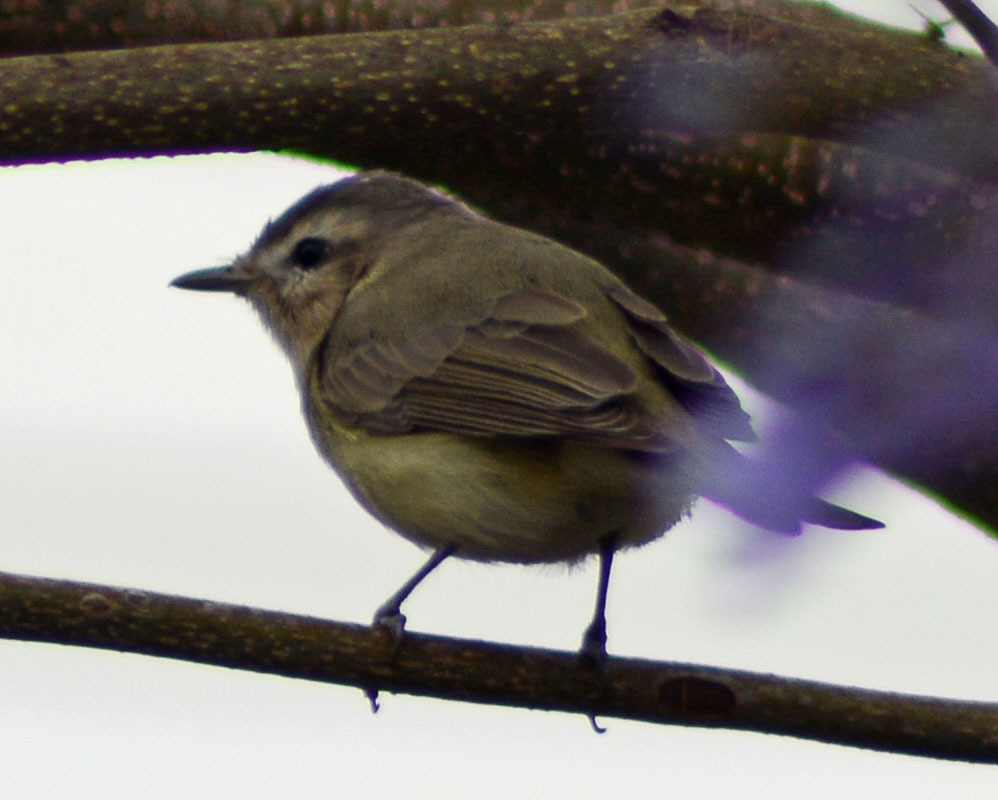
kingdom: Animalia
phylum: Chordata
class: Aves
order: Passeriformes
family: Vireonidae
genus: Vireo
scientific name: Vireo gilvus
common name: Warbling vireo
